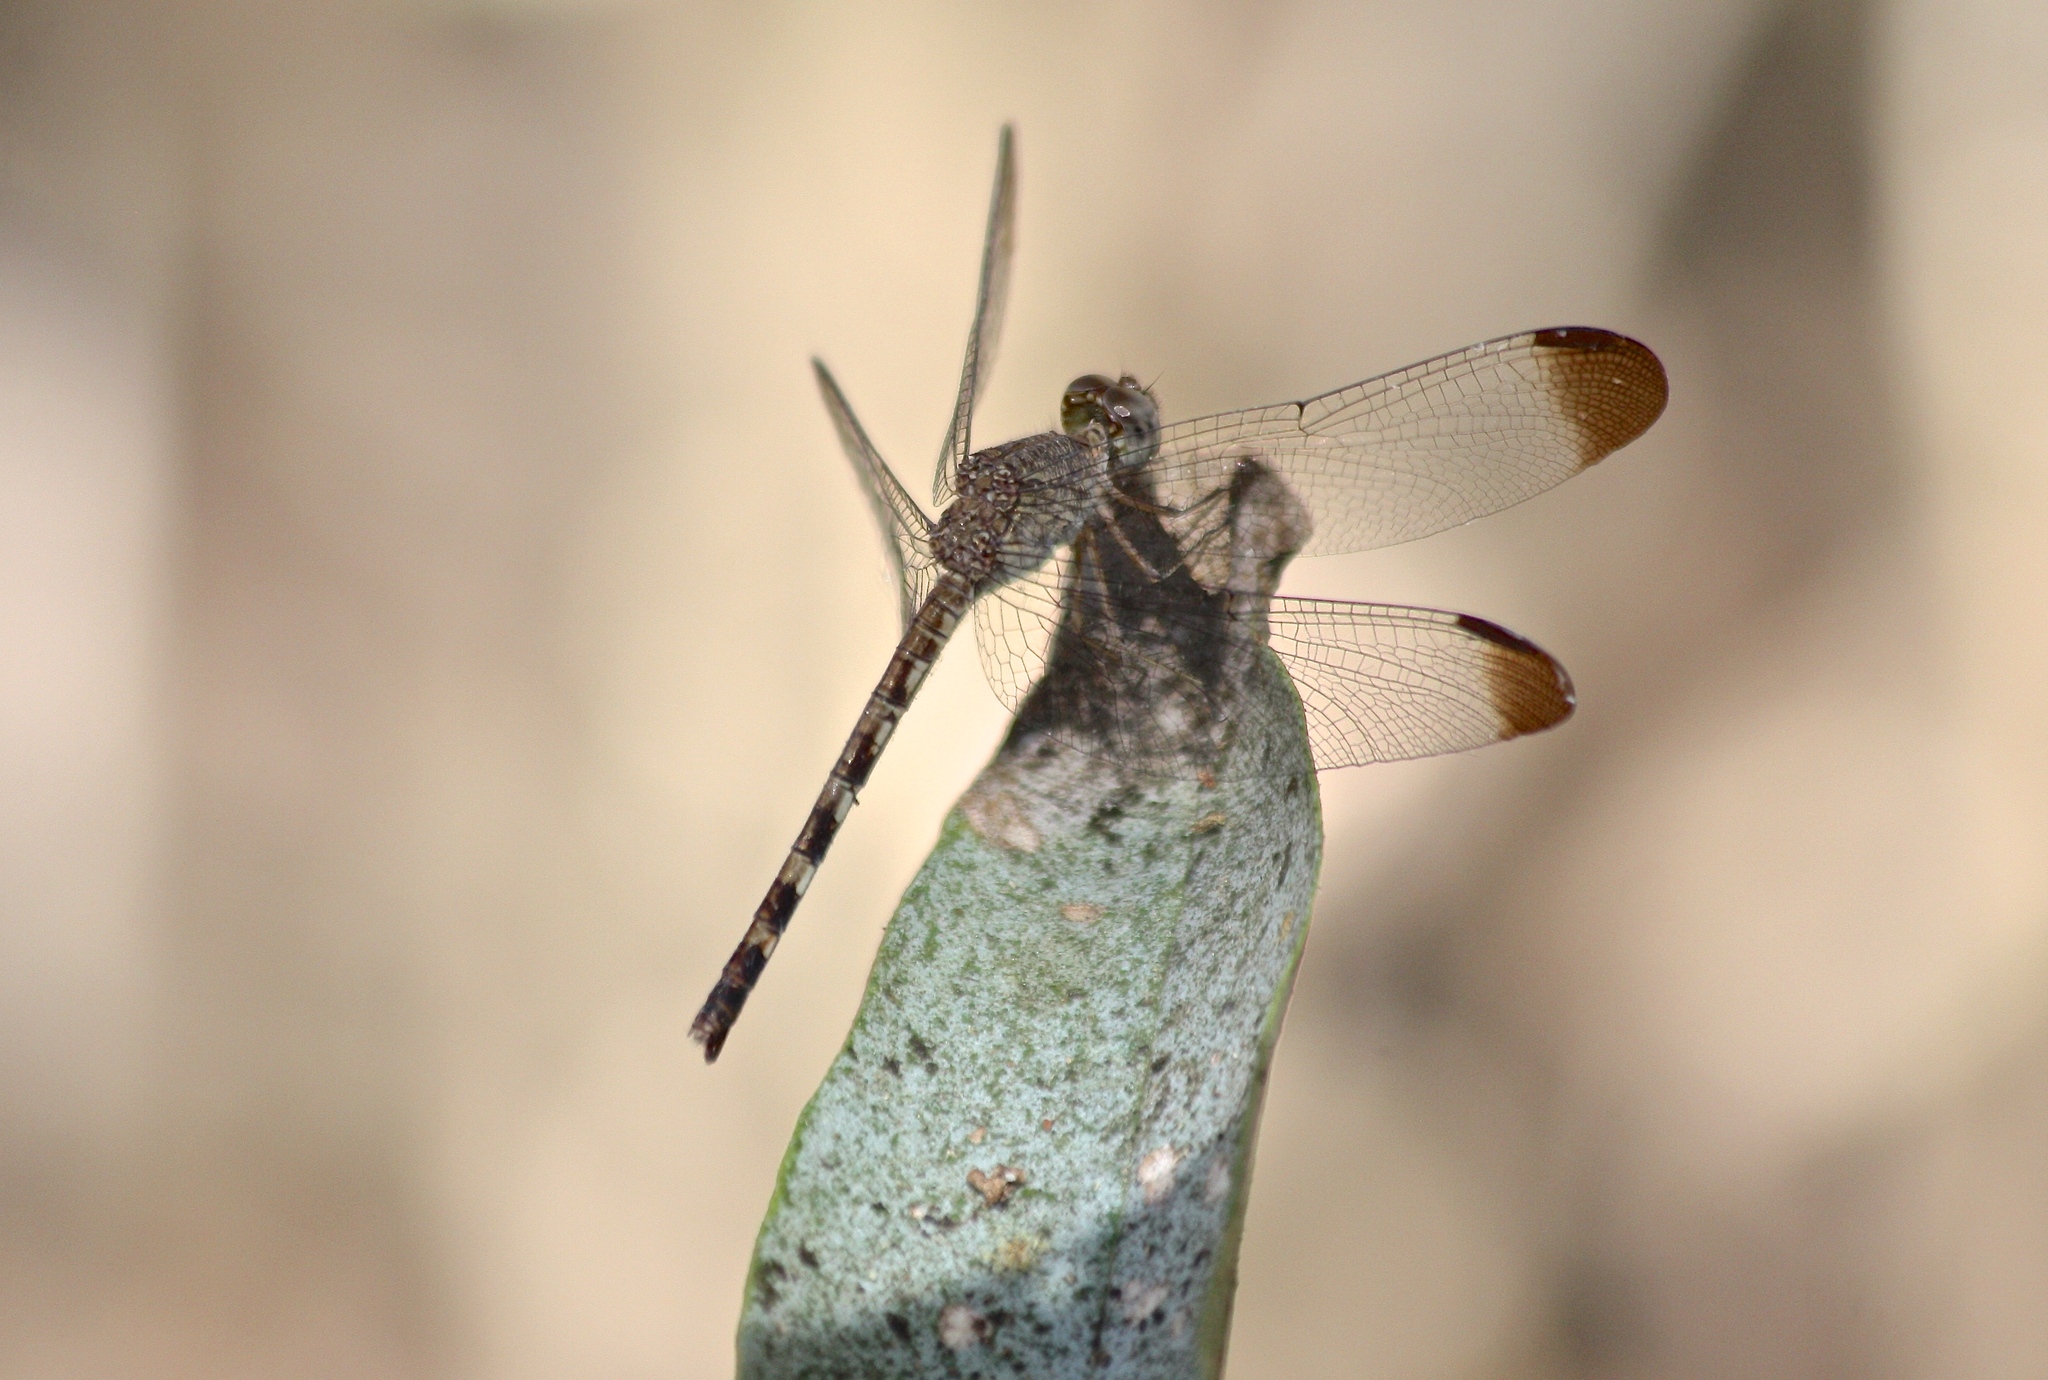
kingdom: Animalia
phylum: Arthropoda
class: Insecta
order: Odonata
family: Libellulidae
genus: Uracis
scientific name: Uracis imbuta
